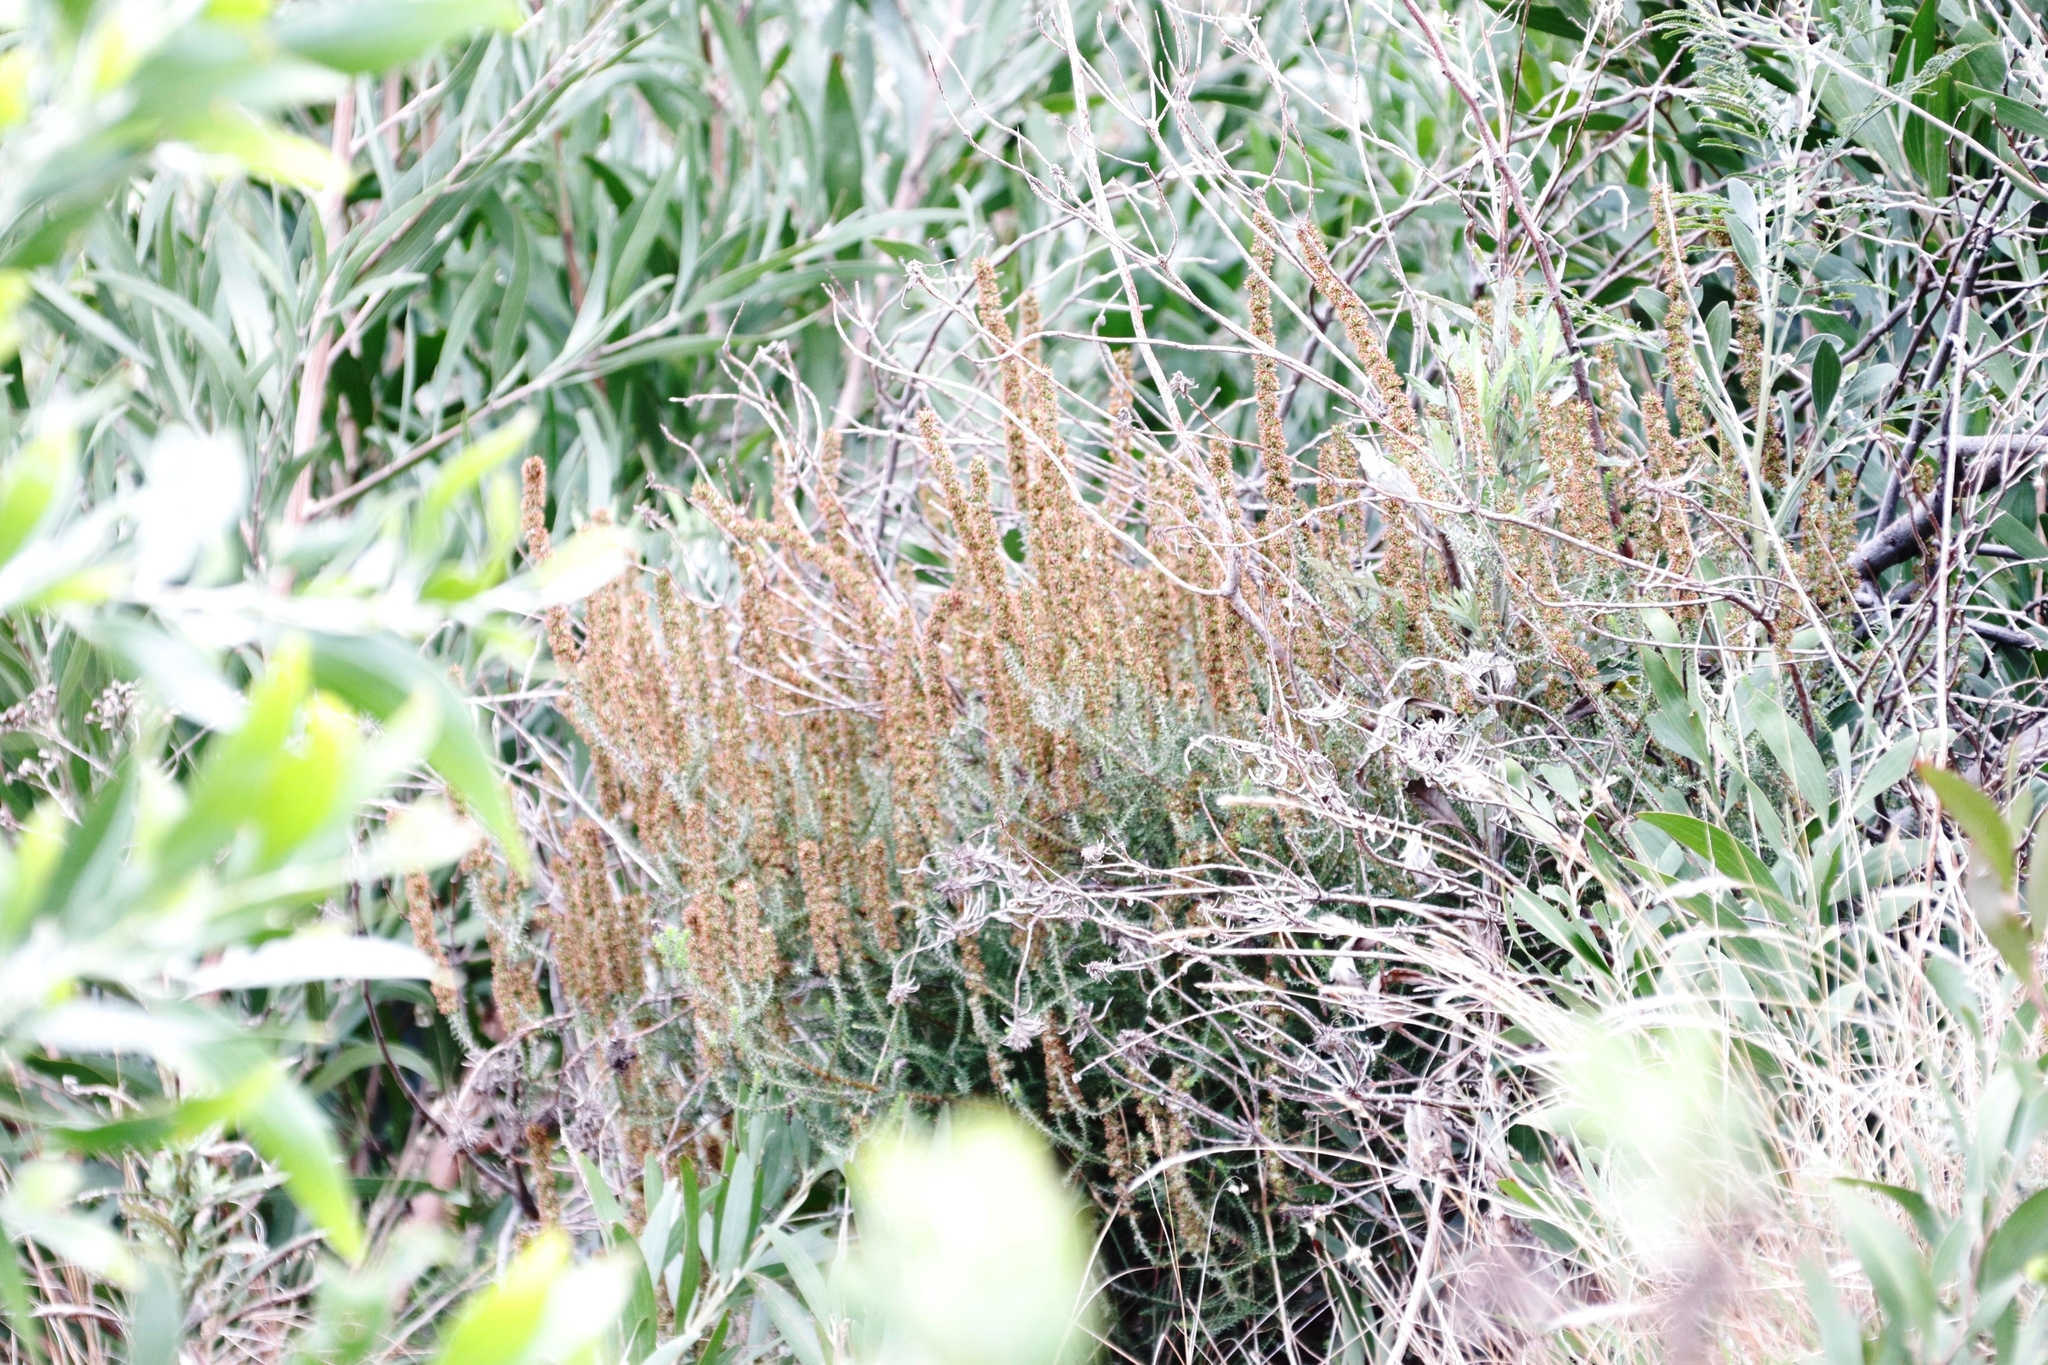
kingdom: Plantae
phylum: Tracheophyta
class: Magnoliopsida
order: Asterales
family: Asteraceae
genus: Seriphium
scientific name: Seriphium cinereum
